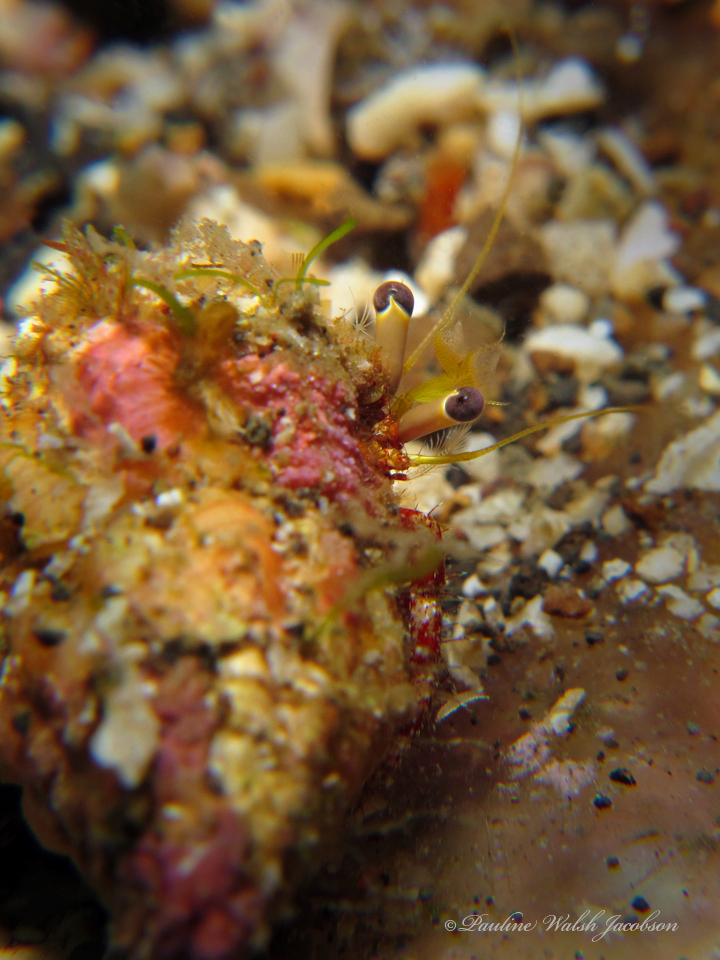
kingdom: Animalia
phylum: Arthropoda
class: Malacostraca
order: Decapoda
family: Diogenidae
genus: Dardanus
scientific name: Dardanus sanguinolentus
